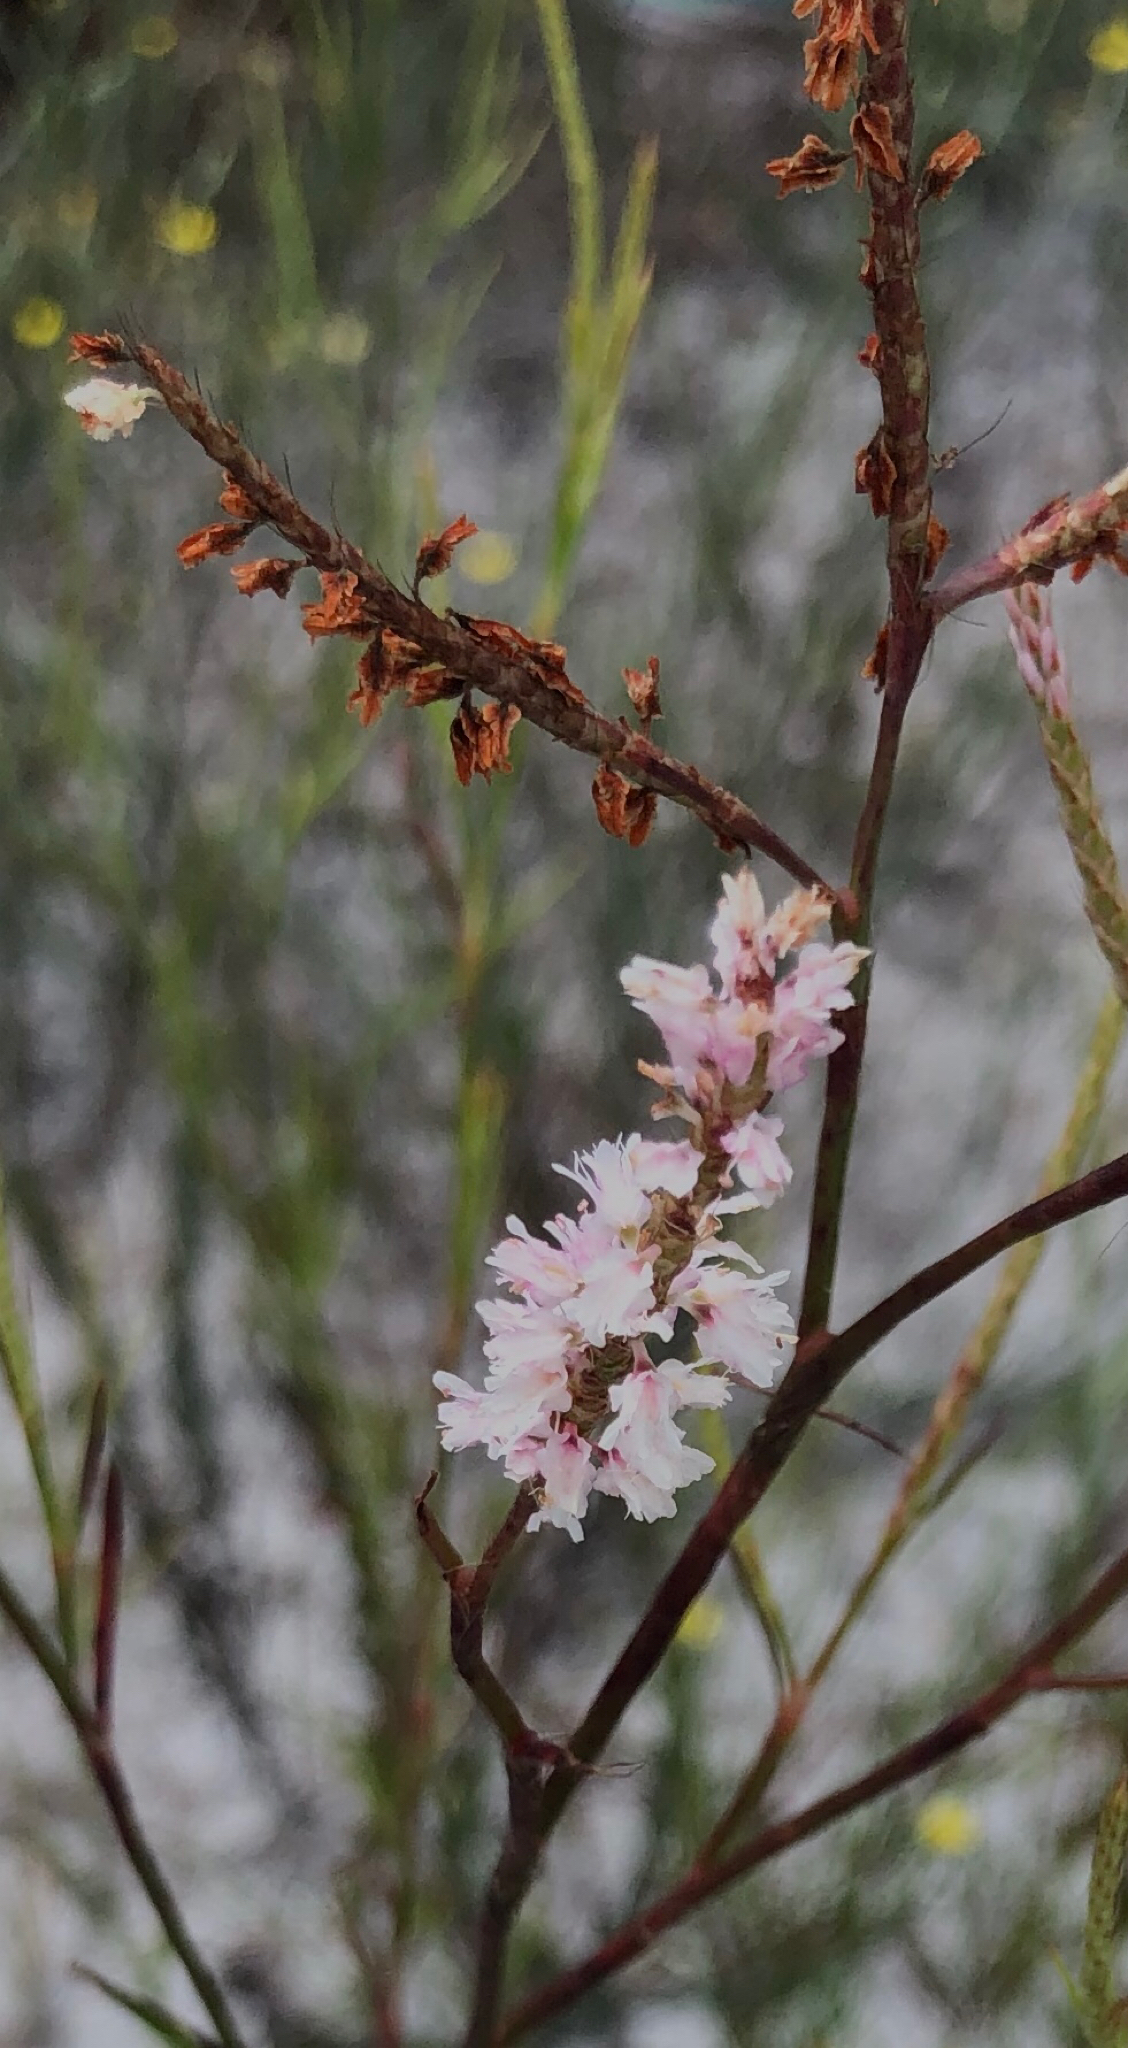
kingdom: Plantae
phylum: Tracheophyta
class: Magnoliopsida
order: Caryophyllales
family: Polygonaceae
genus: Polygonella
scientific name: Polygonella robusta
